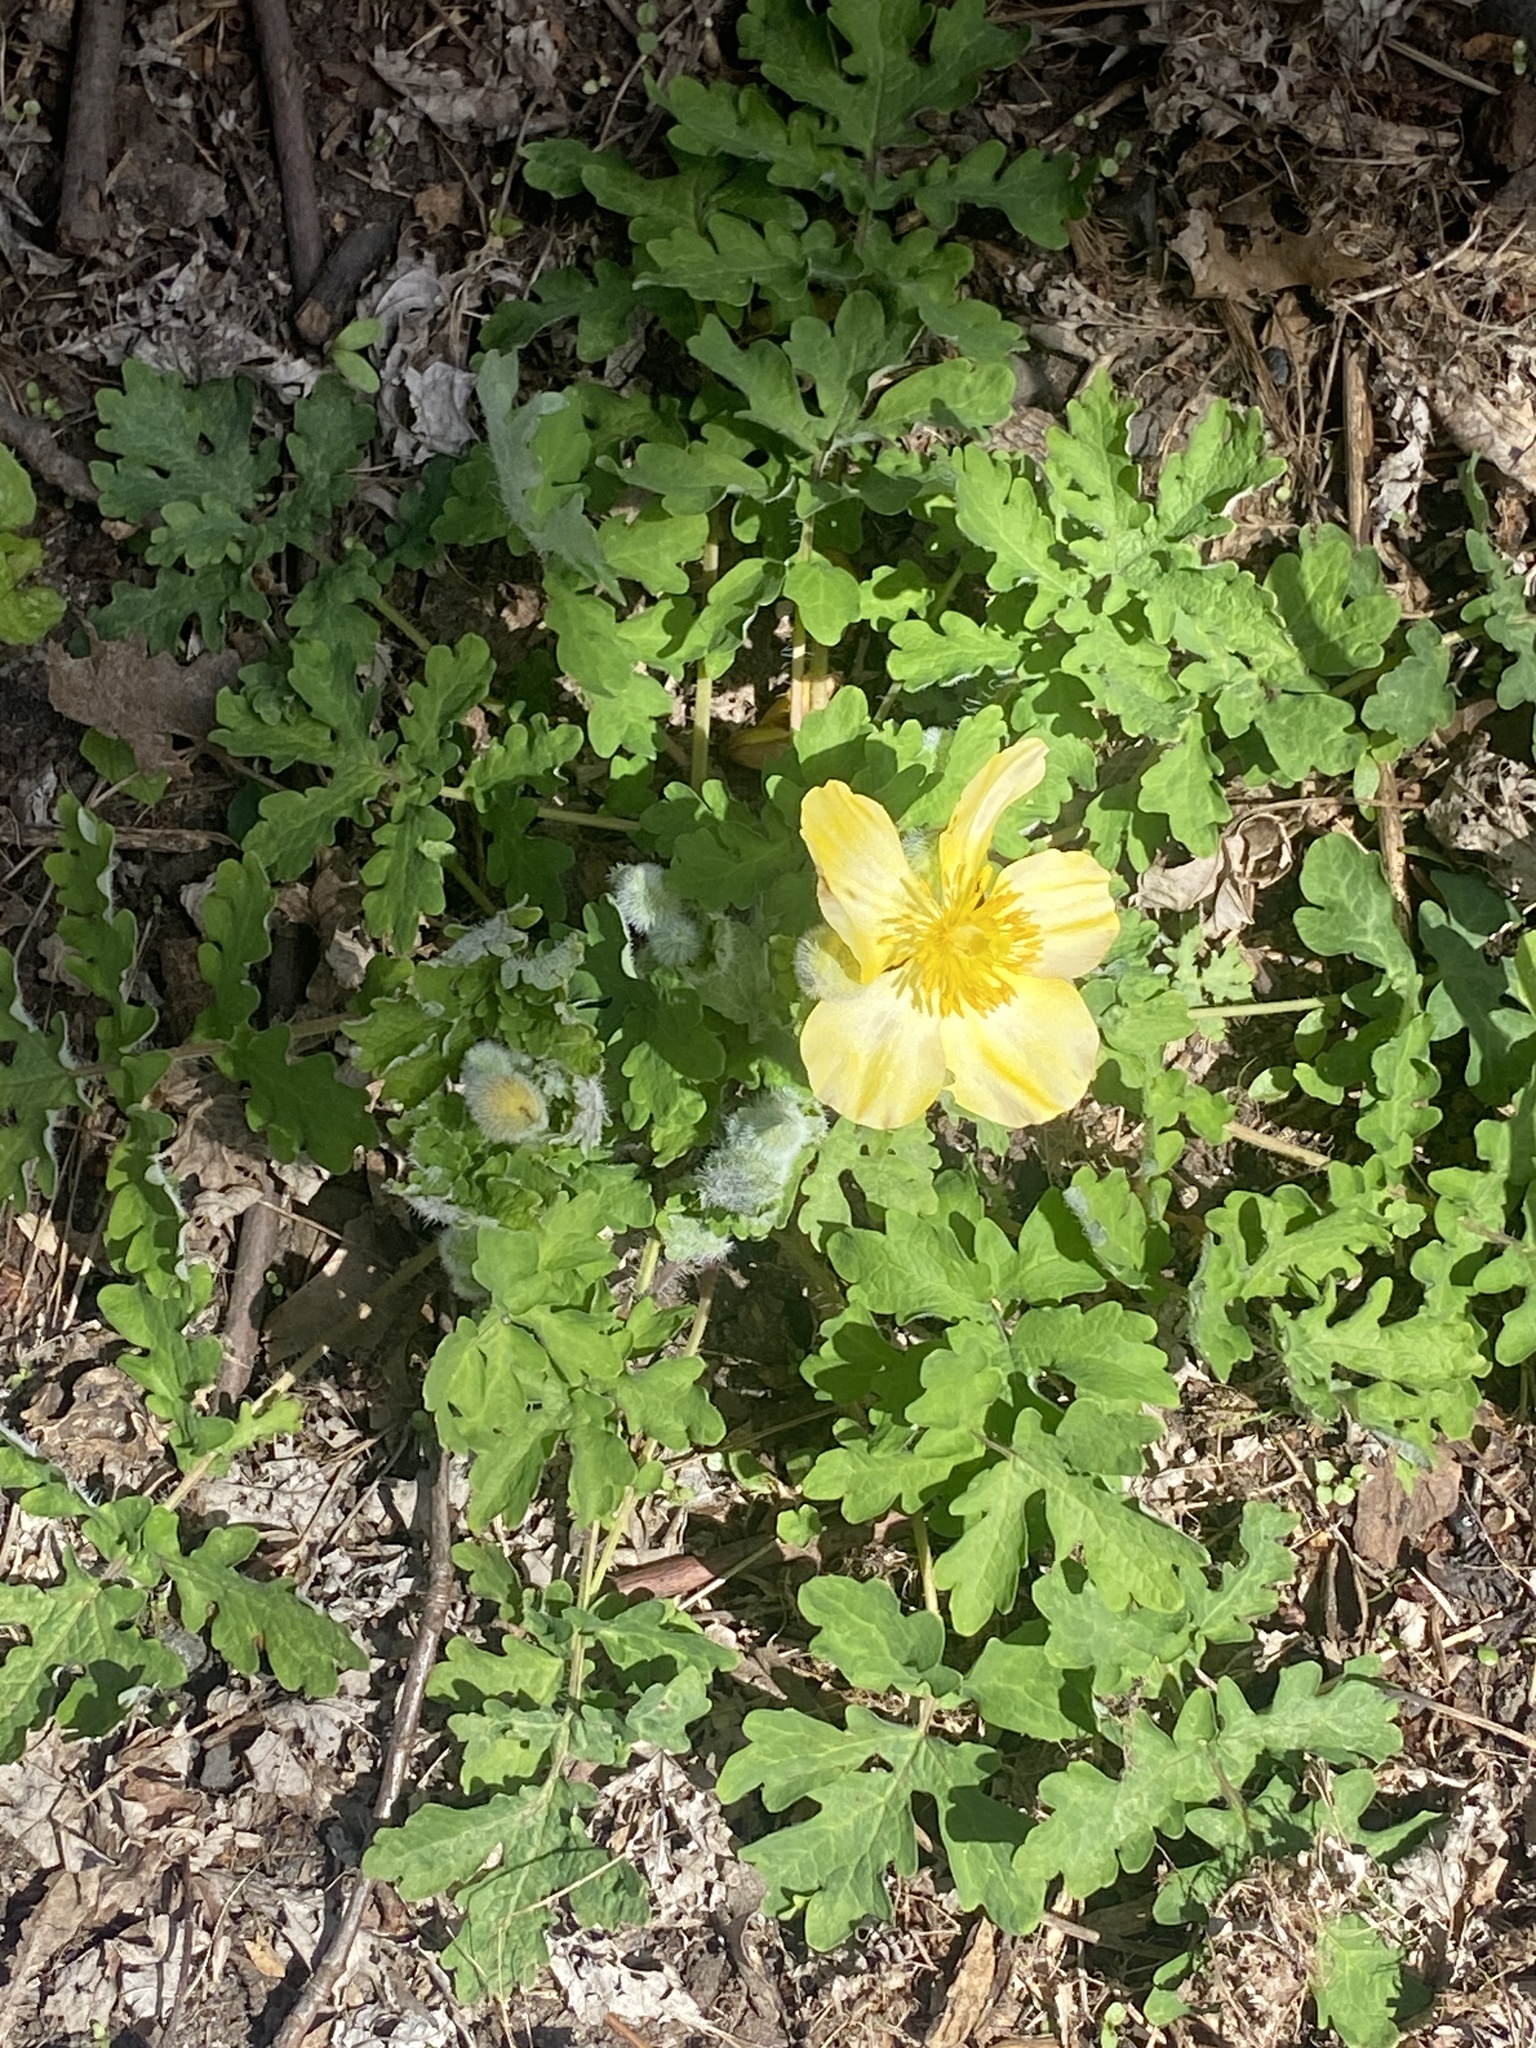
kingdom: Plantae
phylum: Tracheophyta
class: Magnoliopsida
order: Ranunculales
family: Papaveraceae
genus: Stylophorum
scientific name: Stylophorum diphyllum
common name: Celandine poppy
